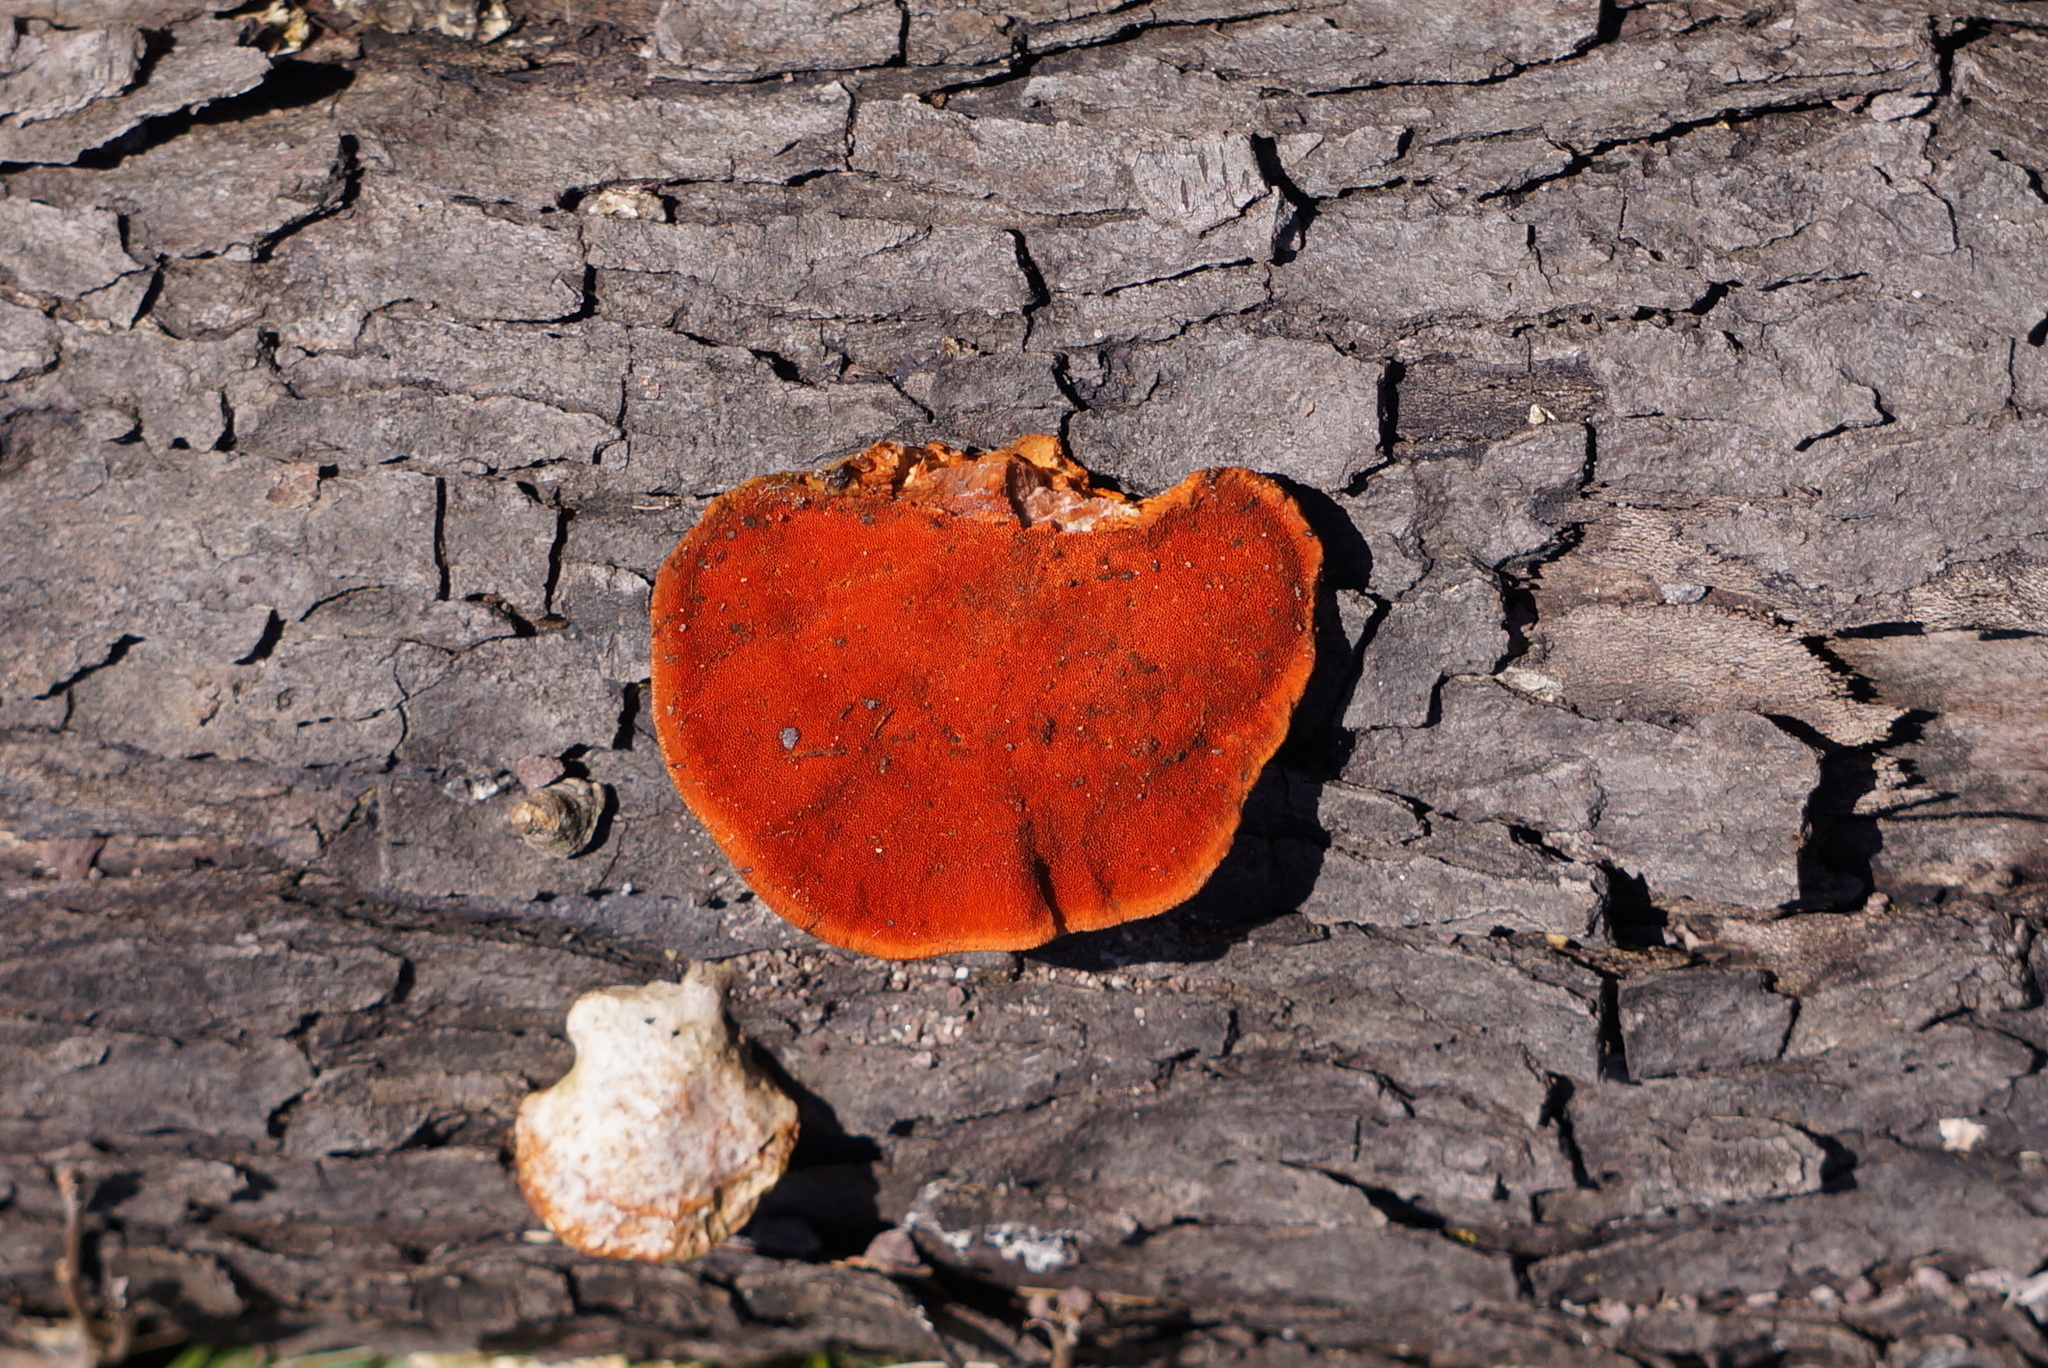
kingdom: Fungi
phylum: Basidiomycota
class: Agaricomycetes
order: Polyporales
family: Polyporaceae
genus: Trametes
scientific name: Trametes cinnabarina
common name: Northern cinnabar polypore
